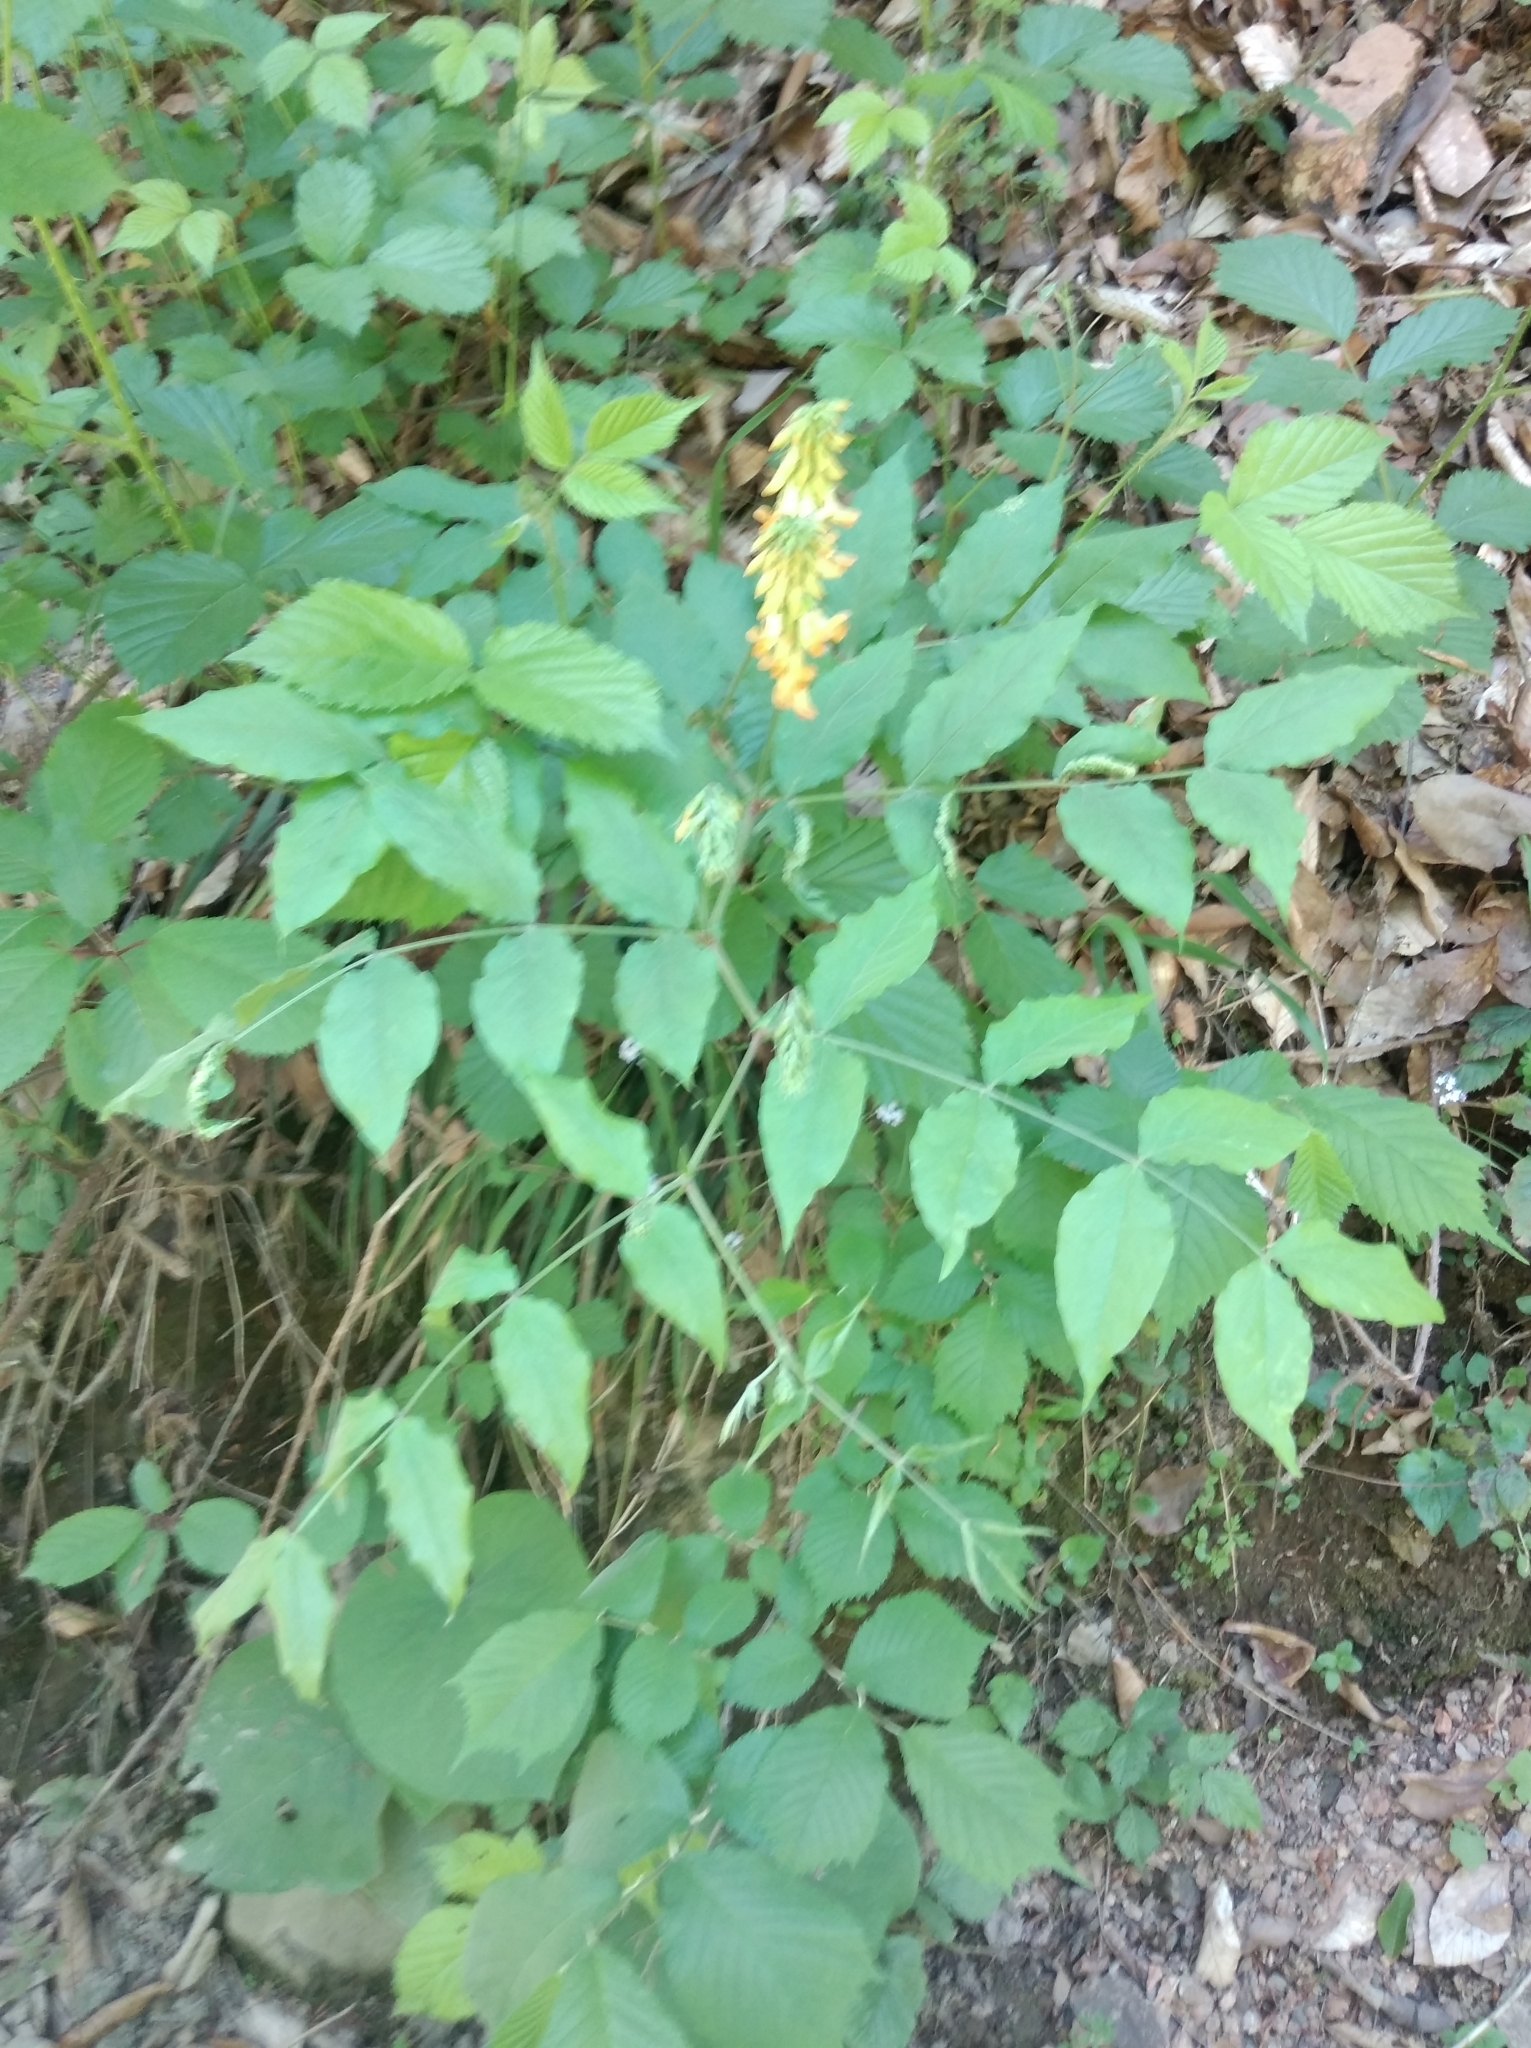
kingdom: Plantae
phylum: Tracheophyta
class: Magnoliopsida
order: Fabales
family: Fabaceae
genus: Lathyrus
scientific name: Lathyrus aureus
